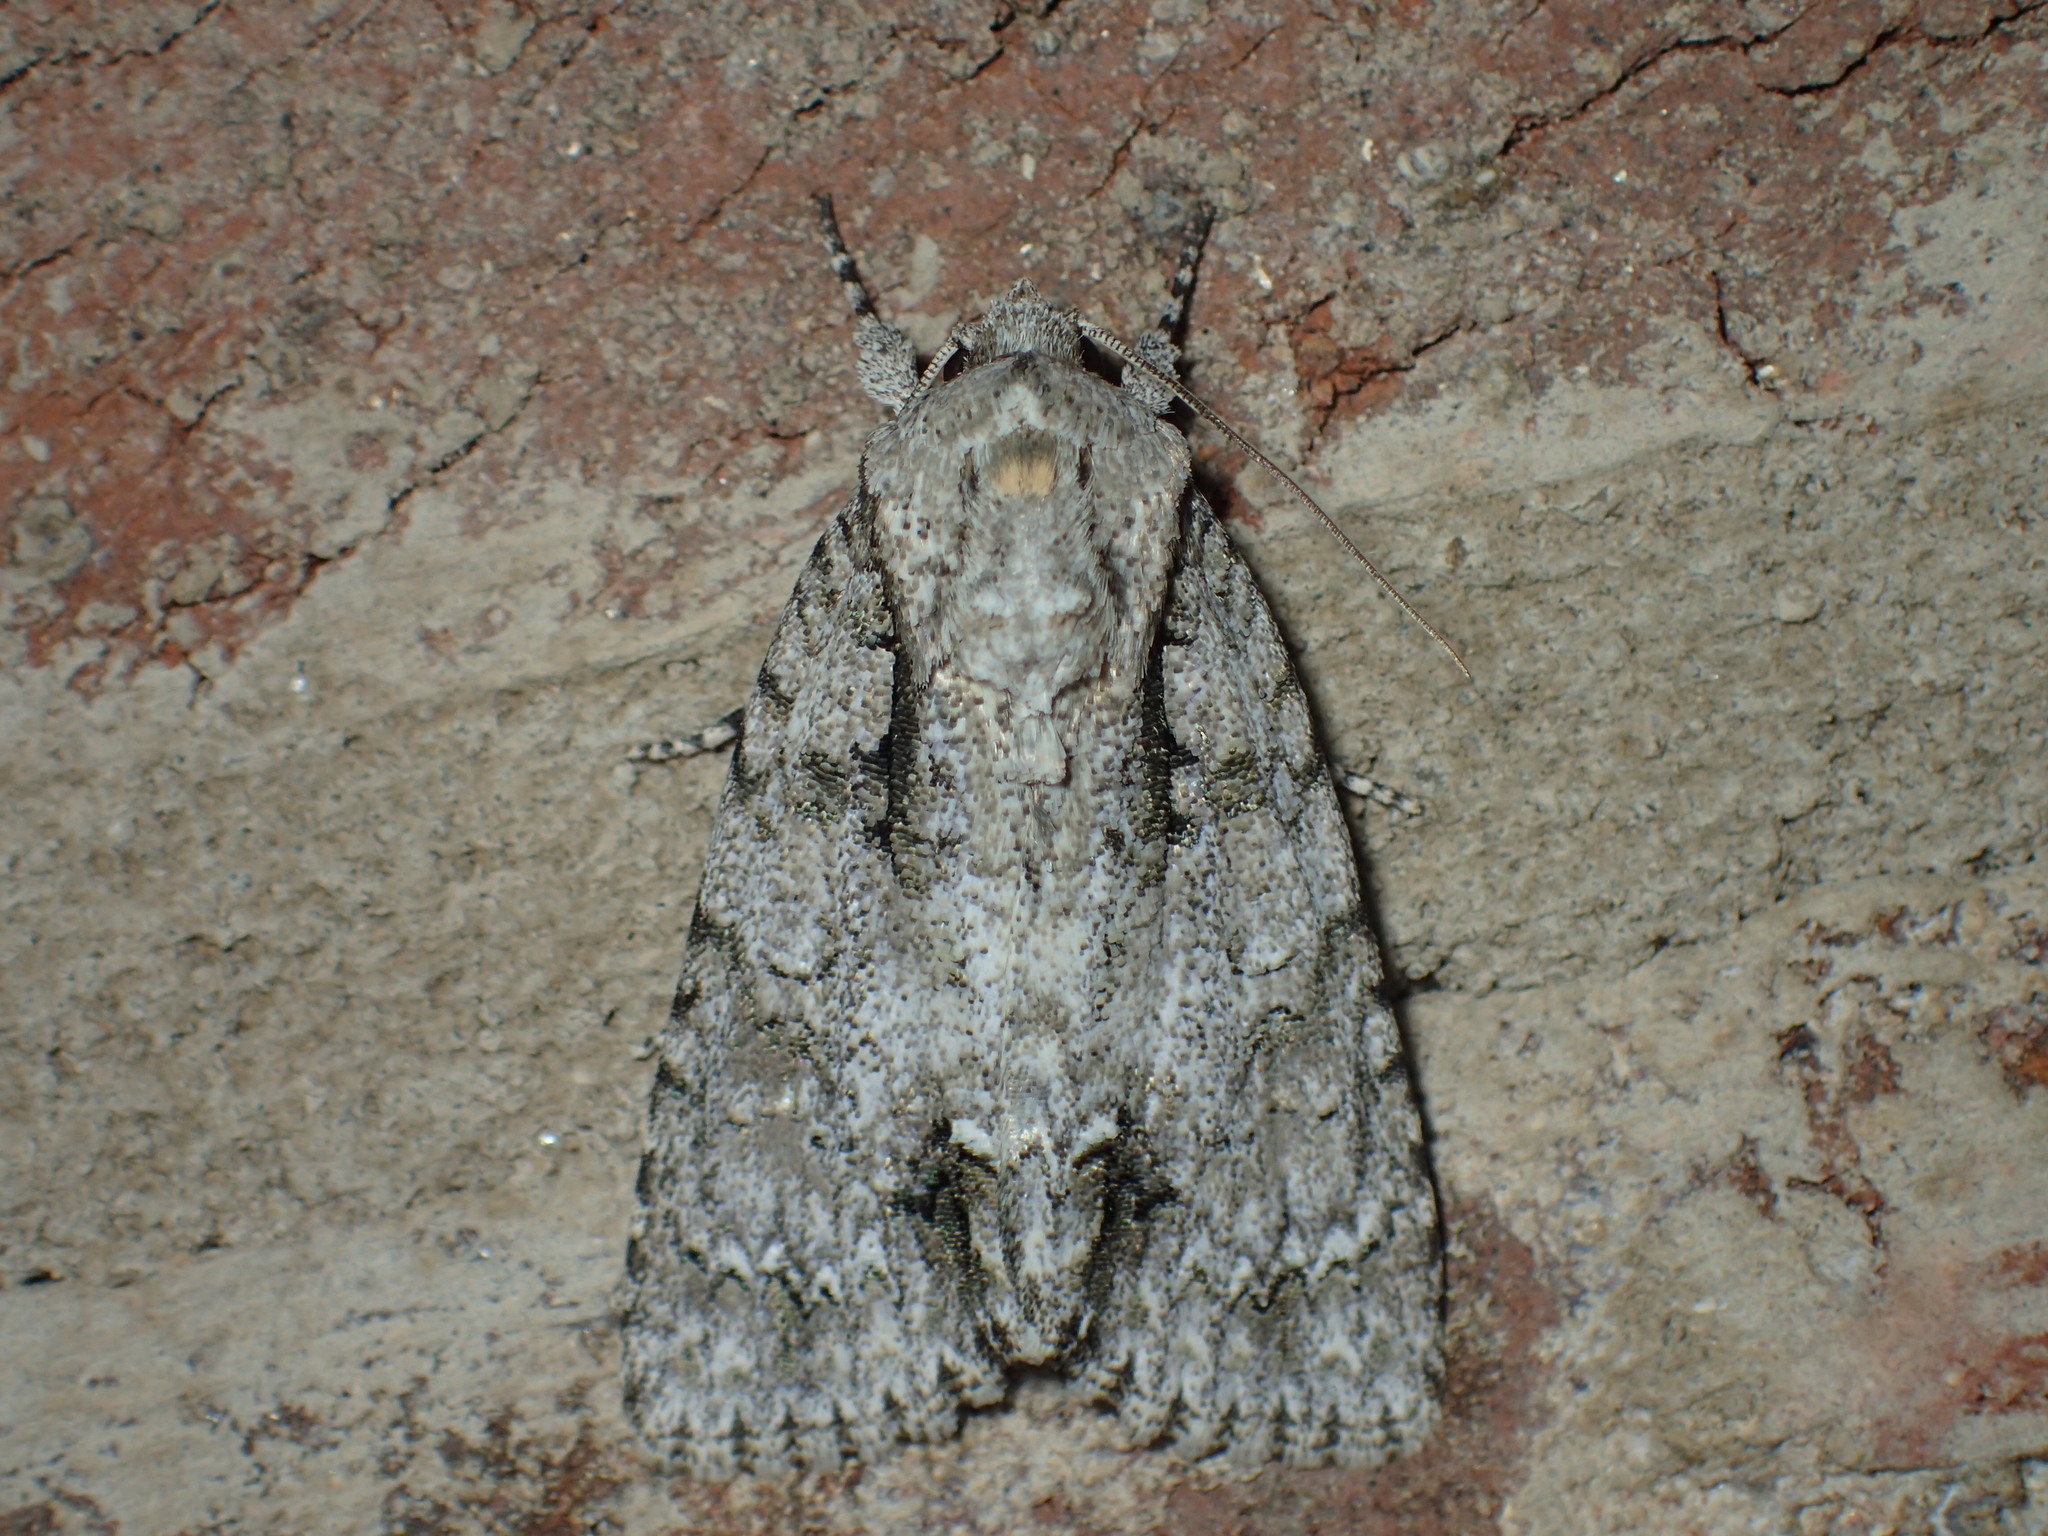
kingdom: Animalia
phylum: Arthropoda
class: Insecta
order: Lepidoptera
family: Noctuidae
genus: Acronicta
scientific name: Acronicta clarescens
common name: Clear dagger
